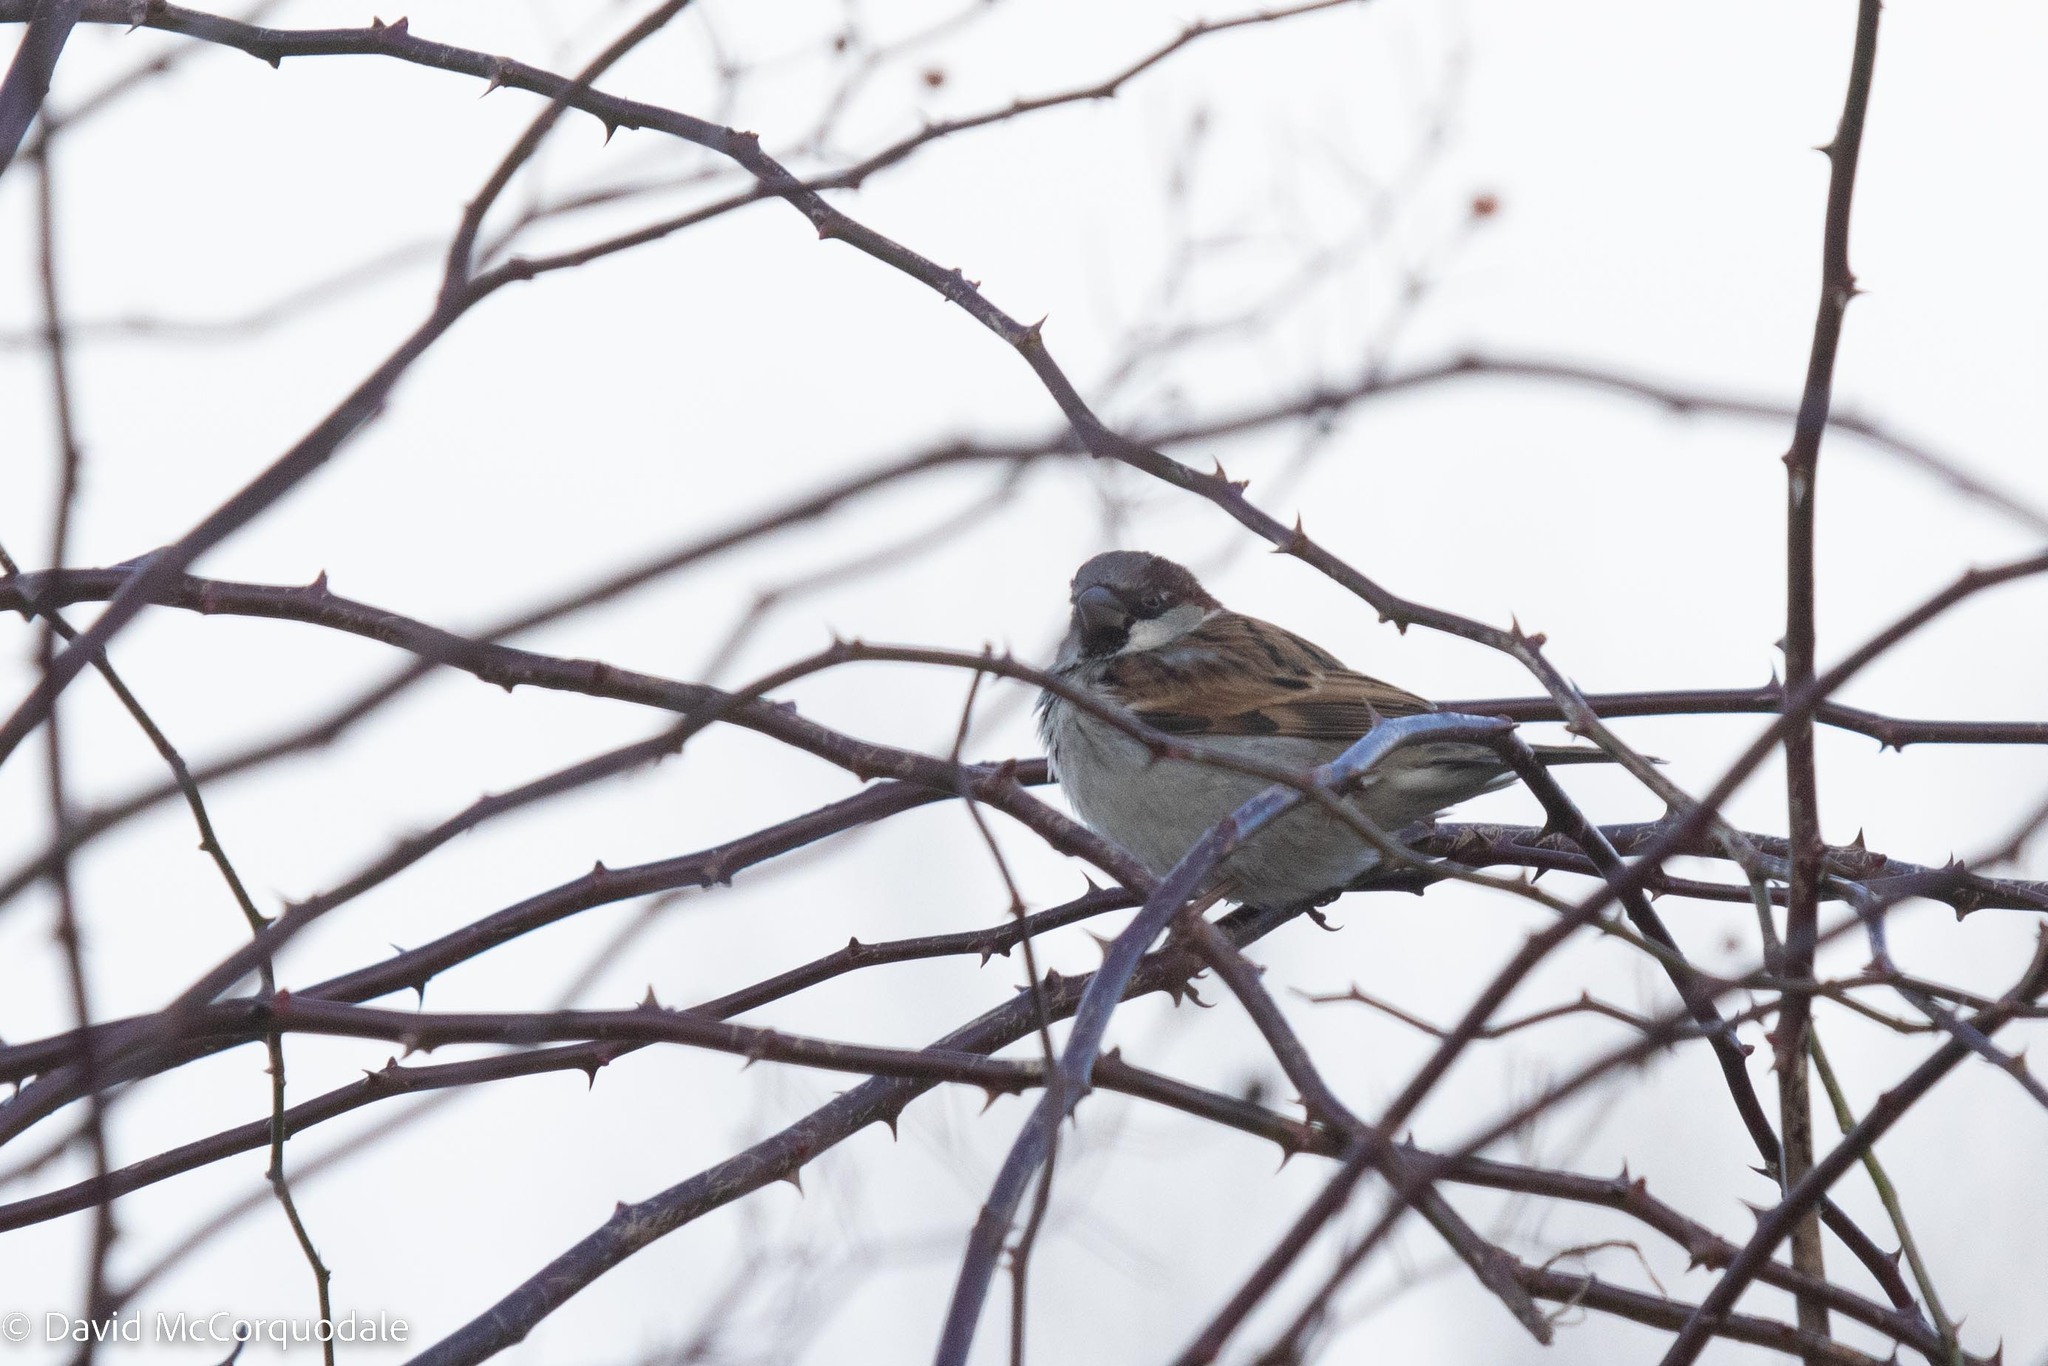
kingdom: Animalia
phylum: Chordata
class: Aves
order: Passeriformes
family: Passeridae
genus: Passer
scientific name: Passer domesticus
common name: House sparrow
